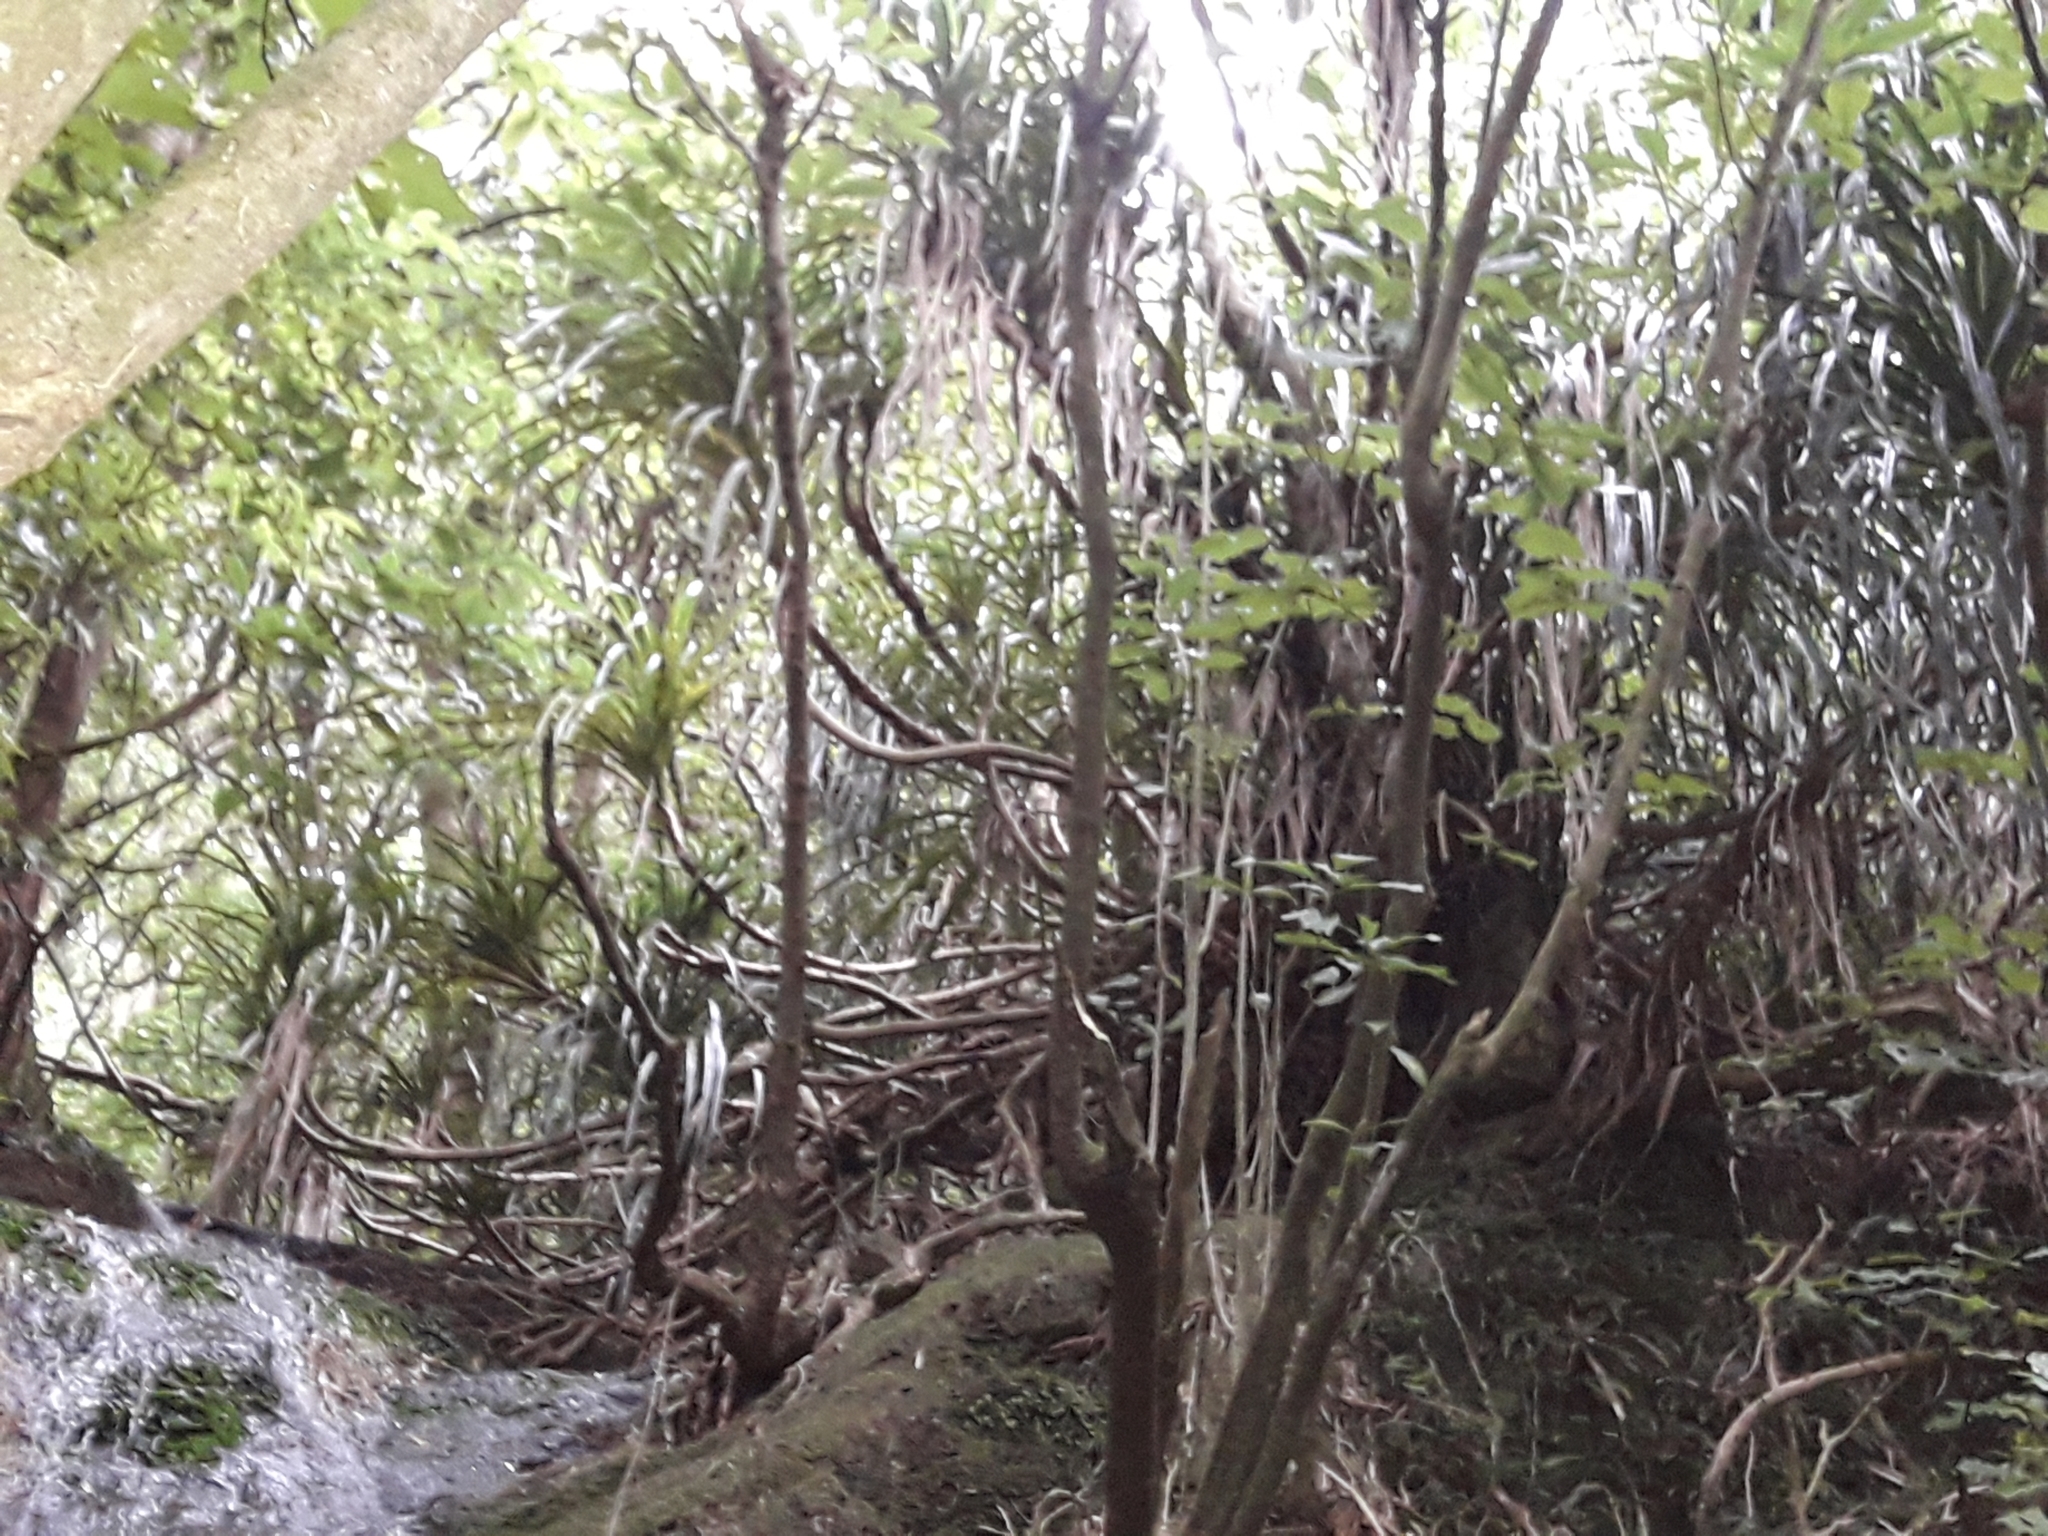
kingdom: Plantae
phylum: Tracheophyta
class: Liliopsida
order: Pandanales
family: Pandanaceae
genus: Freycinetia
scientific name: Freycinetia banksii
